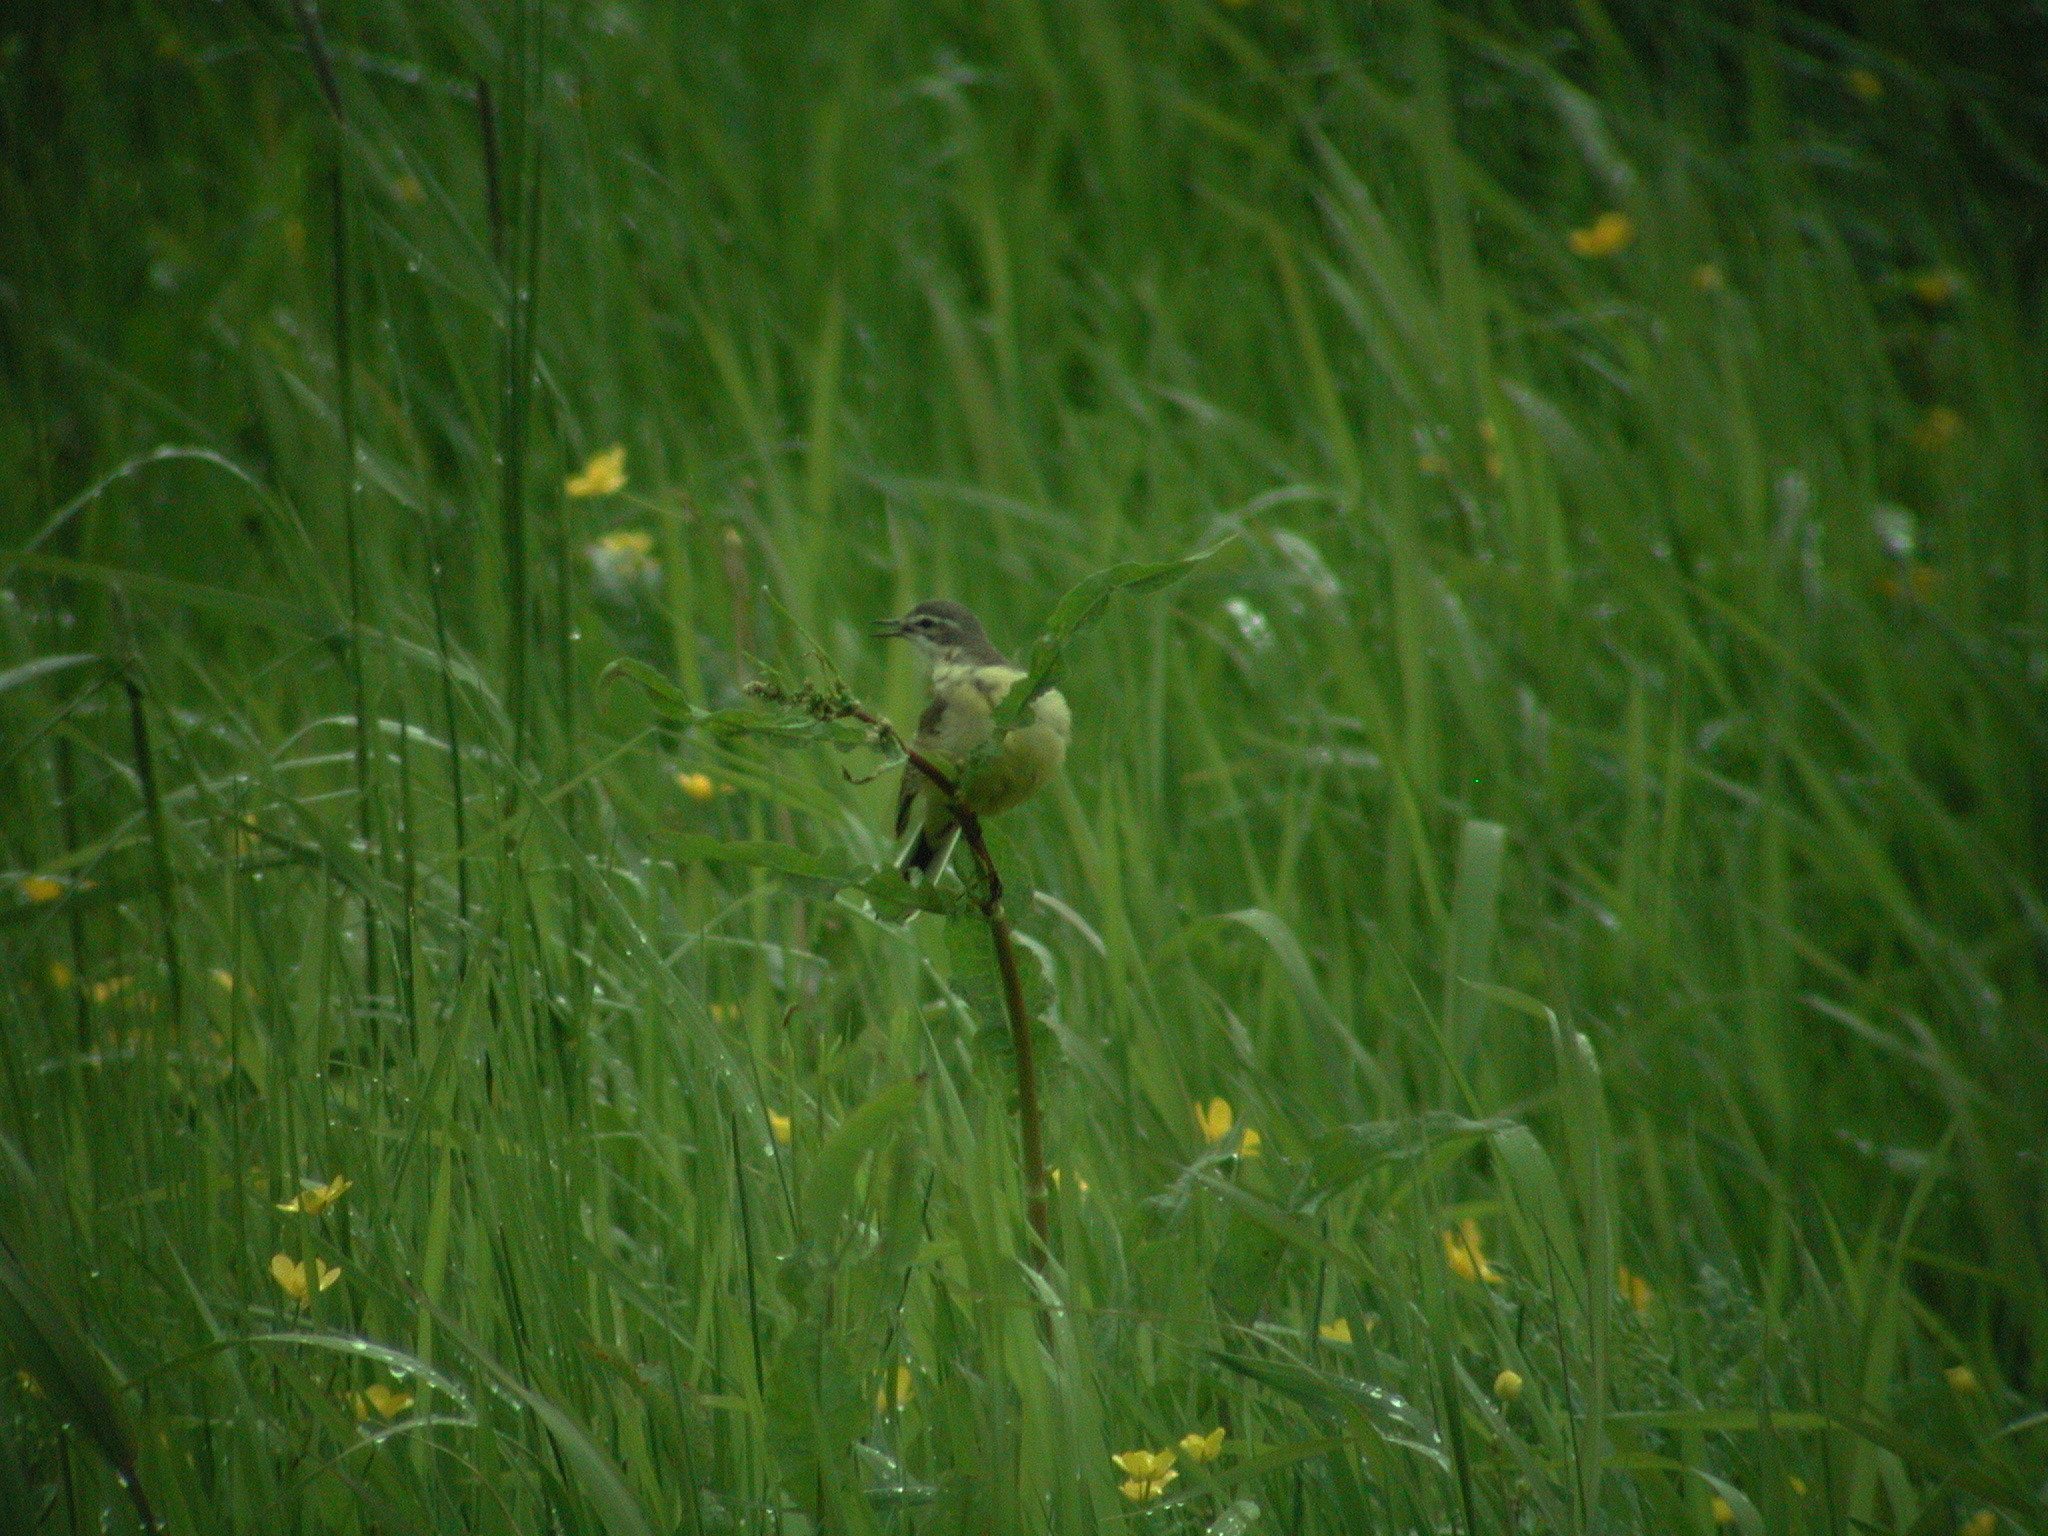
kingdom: Animalia
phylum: Chordata
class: Aves
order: Passeriformes
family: Motacillidae
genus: Motacilla
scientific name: Motacilla flava
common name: Western yellow wagtail
